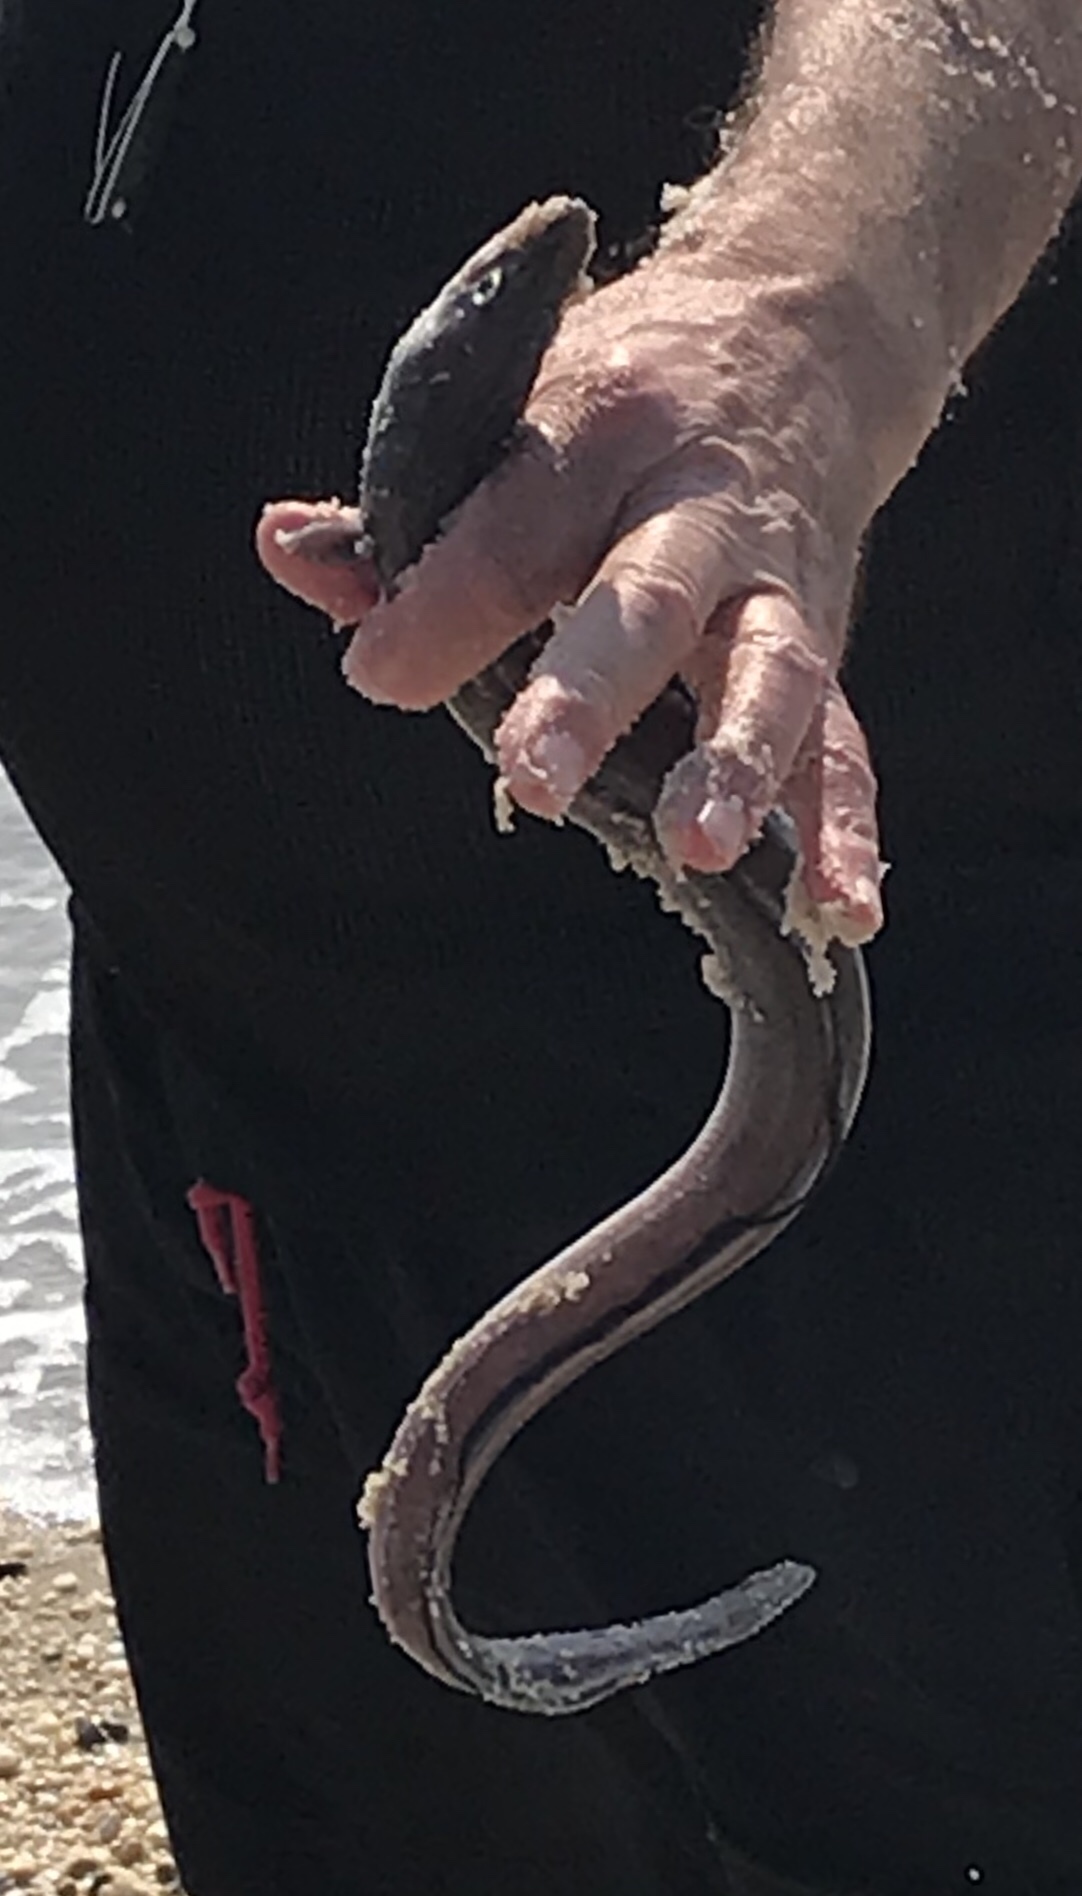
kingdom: Animalia
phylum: Chordata
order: Anguilliformes
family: Congridae
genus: Conger
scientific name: Conger oceanicus
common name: American conger
